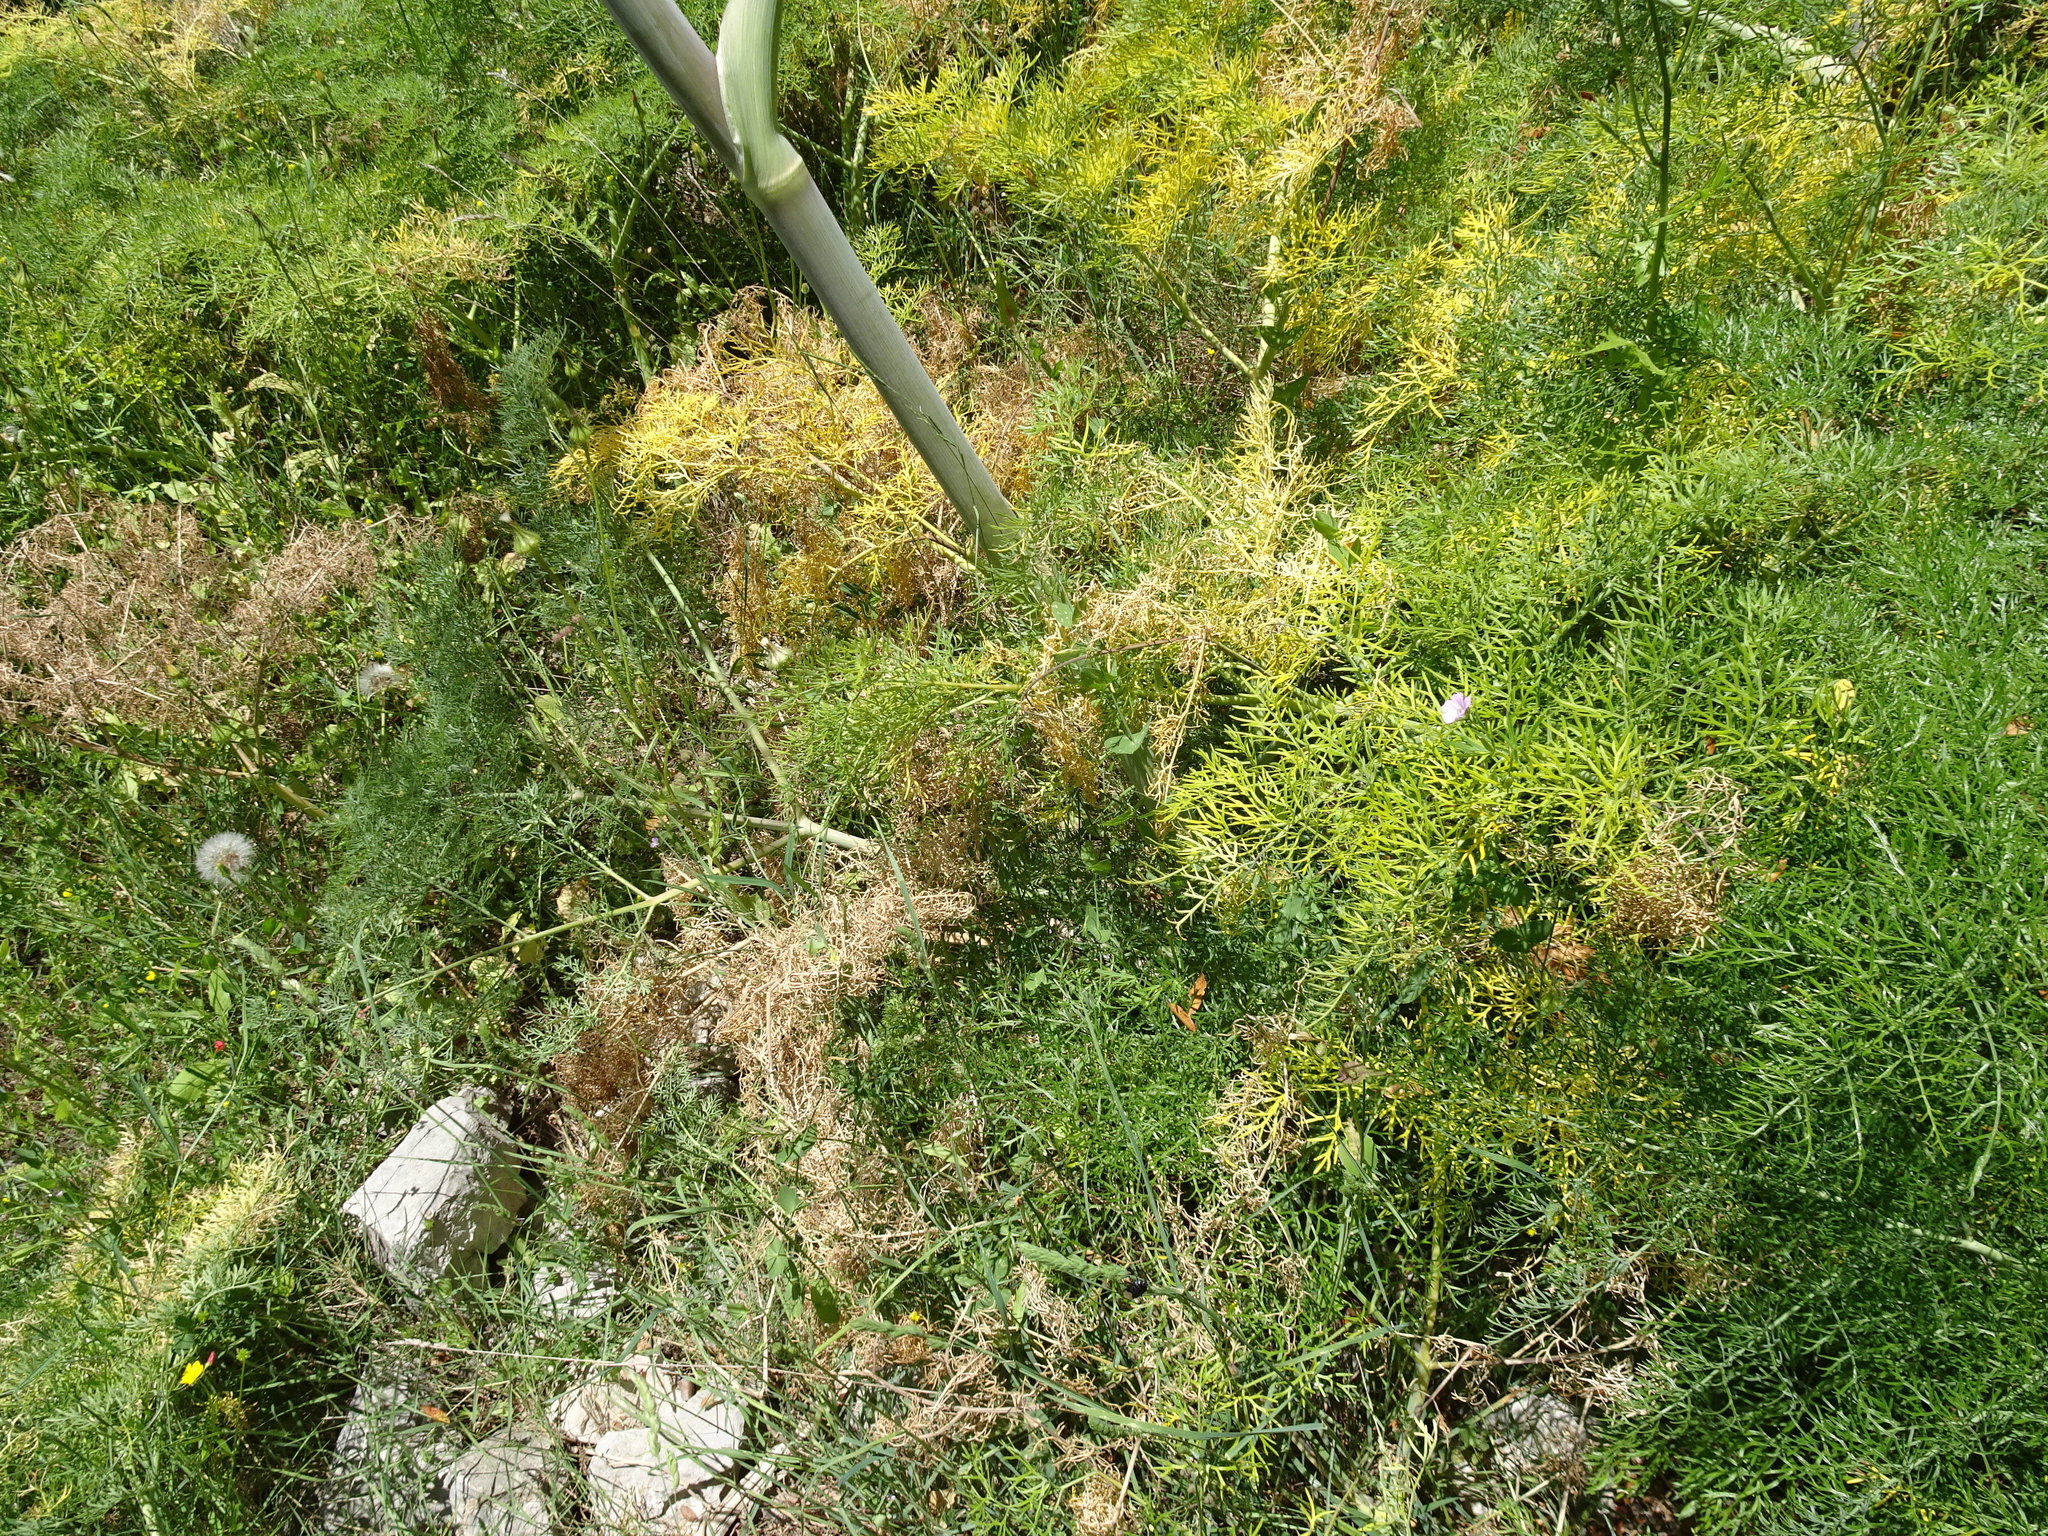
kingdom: Plantae
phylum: Tracheophyta
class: Magnoliopsida
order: Apiales
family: Apiaceae
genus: Ferula
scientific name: Ferula glauca
